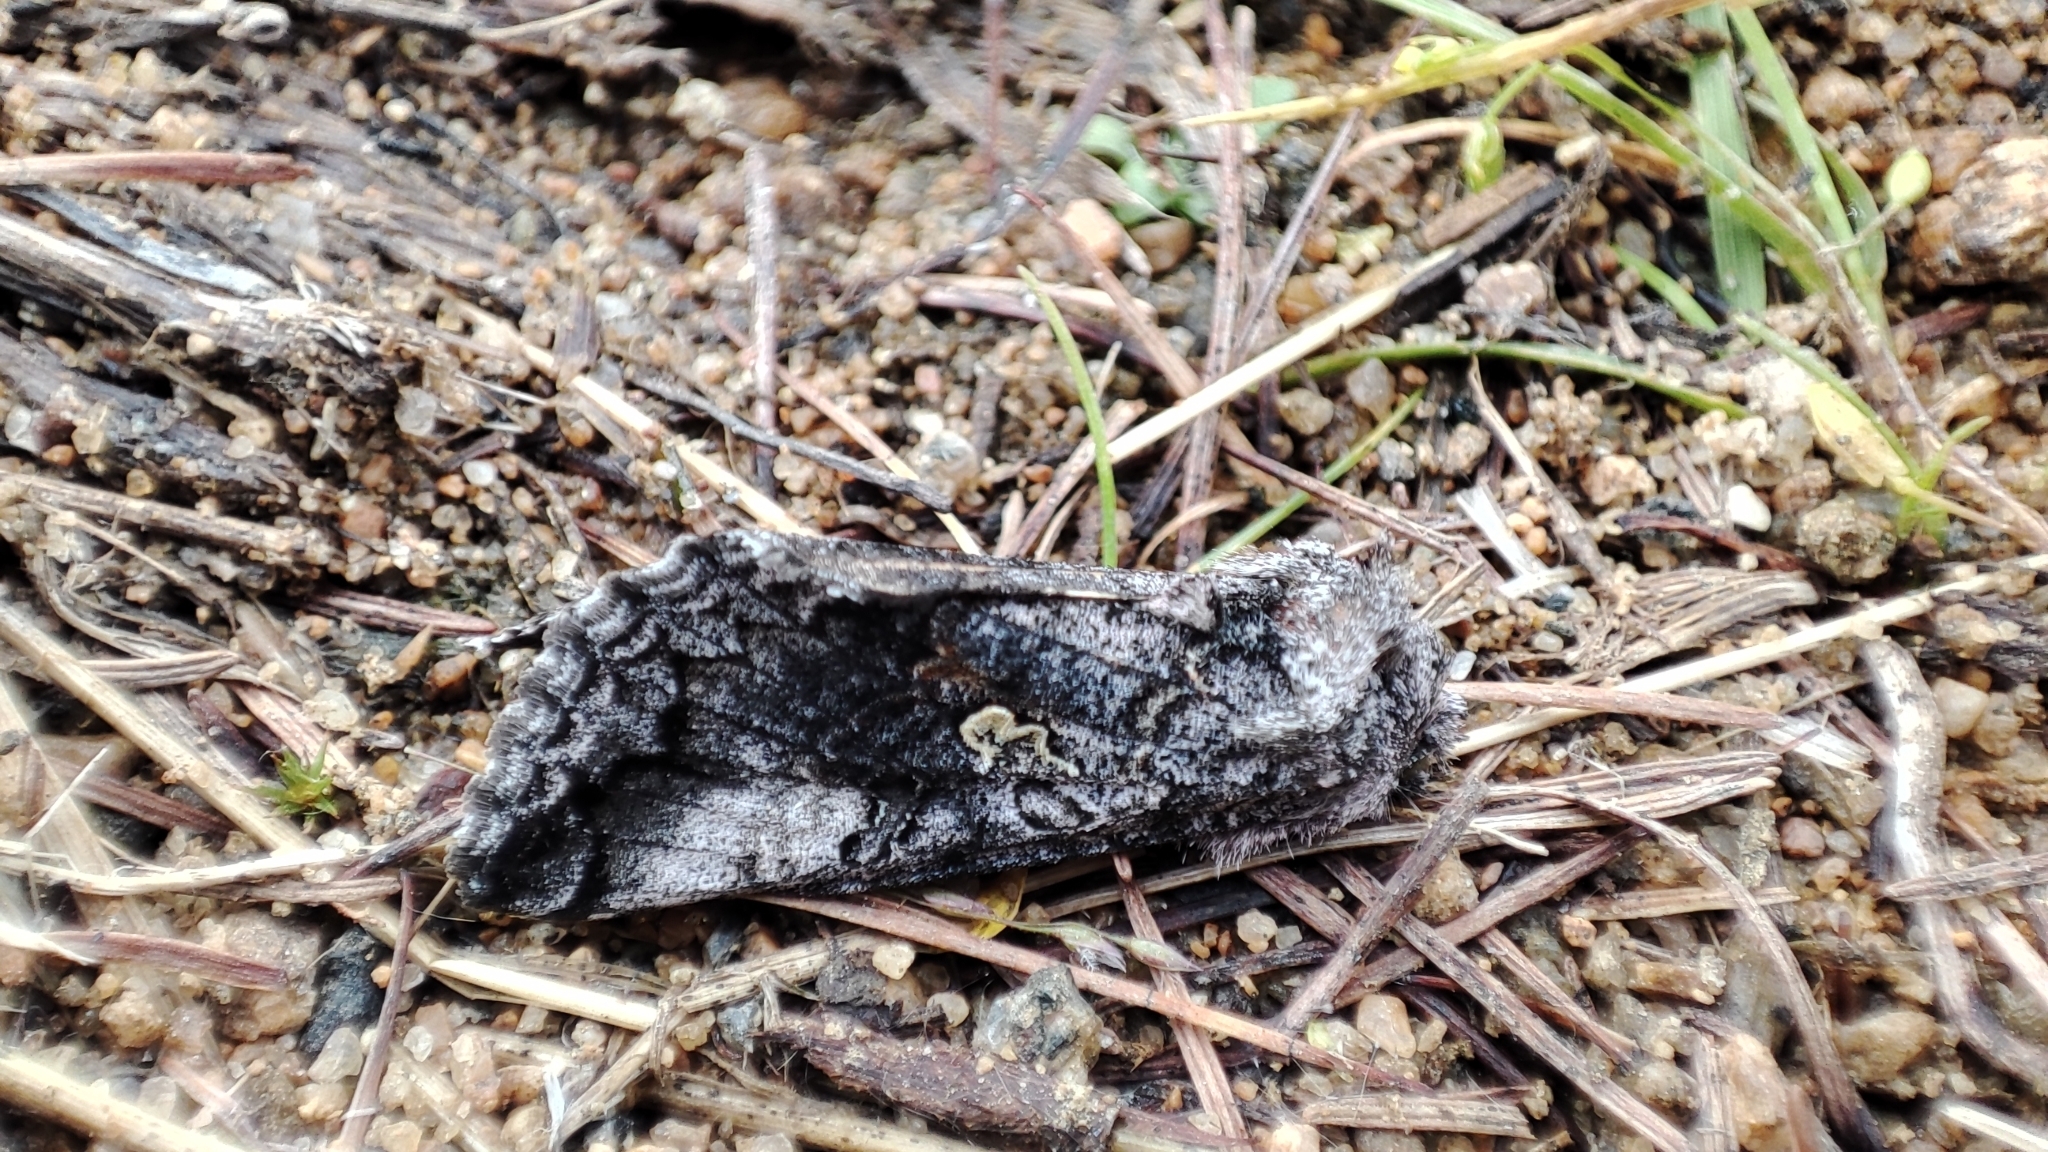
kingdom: Animalia
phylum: Arthropoda
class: Insecta
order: Lepidoptera
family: Noctuidae
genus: Syngrapha
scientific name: Syngrapha interrogationis
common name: Scarce silver y
